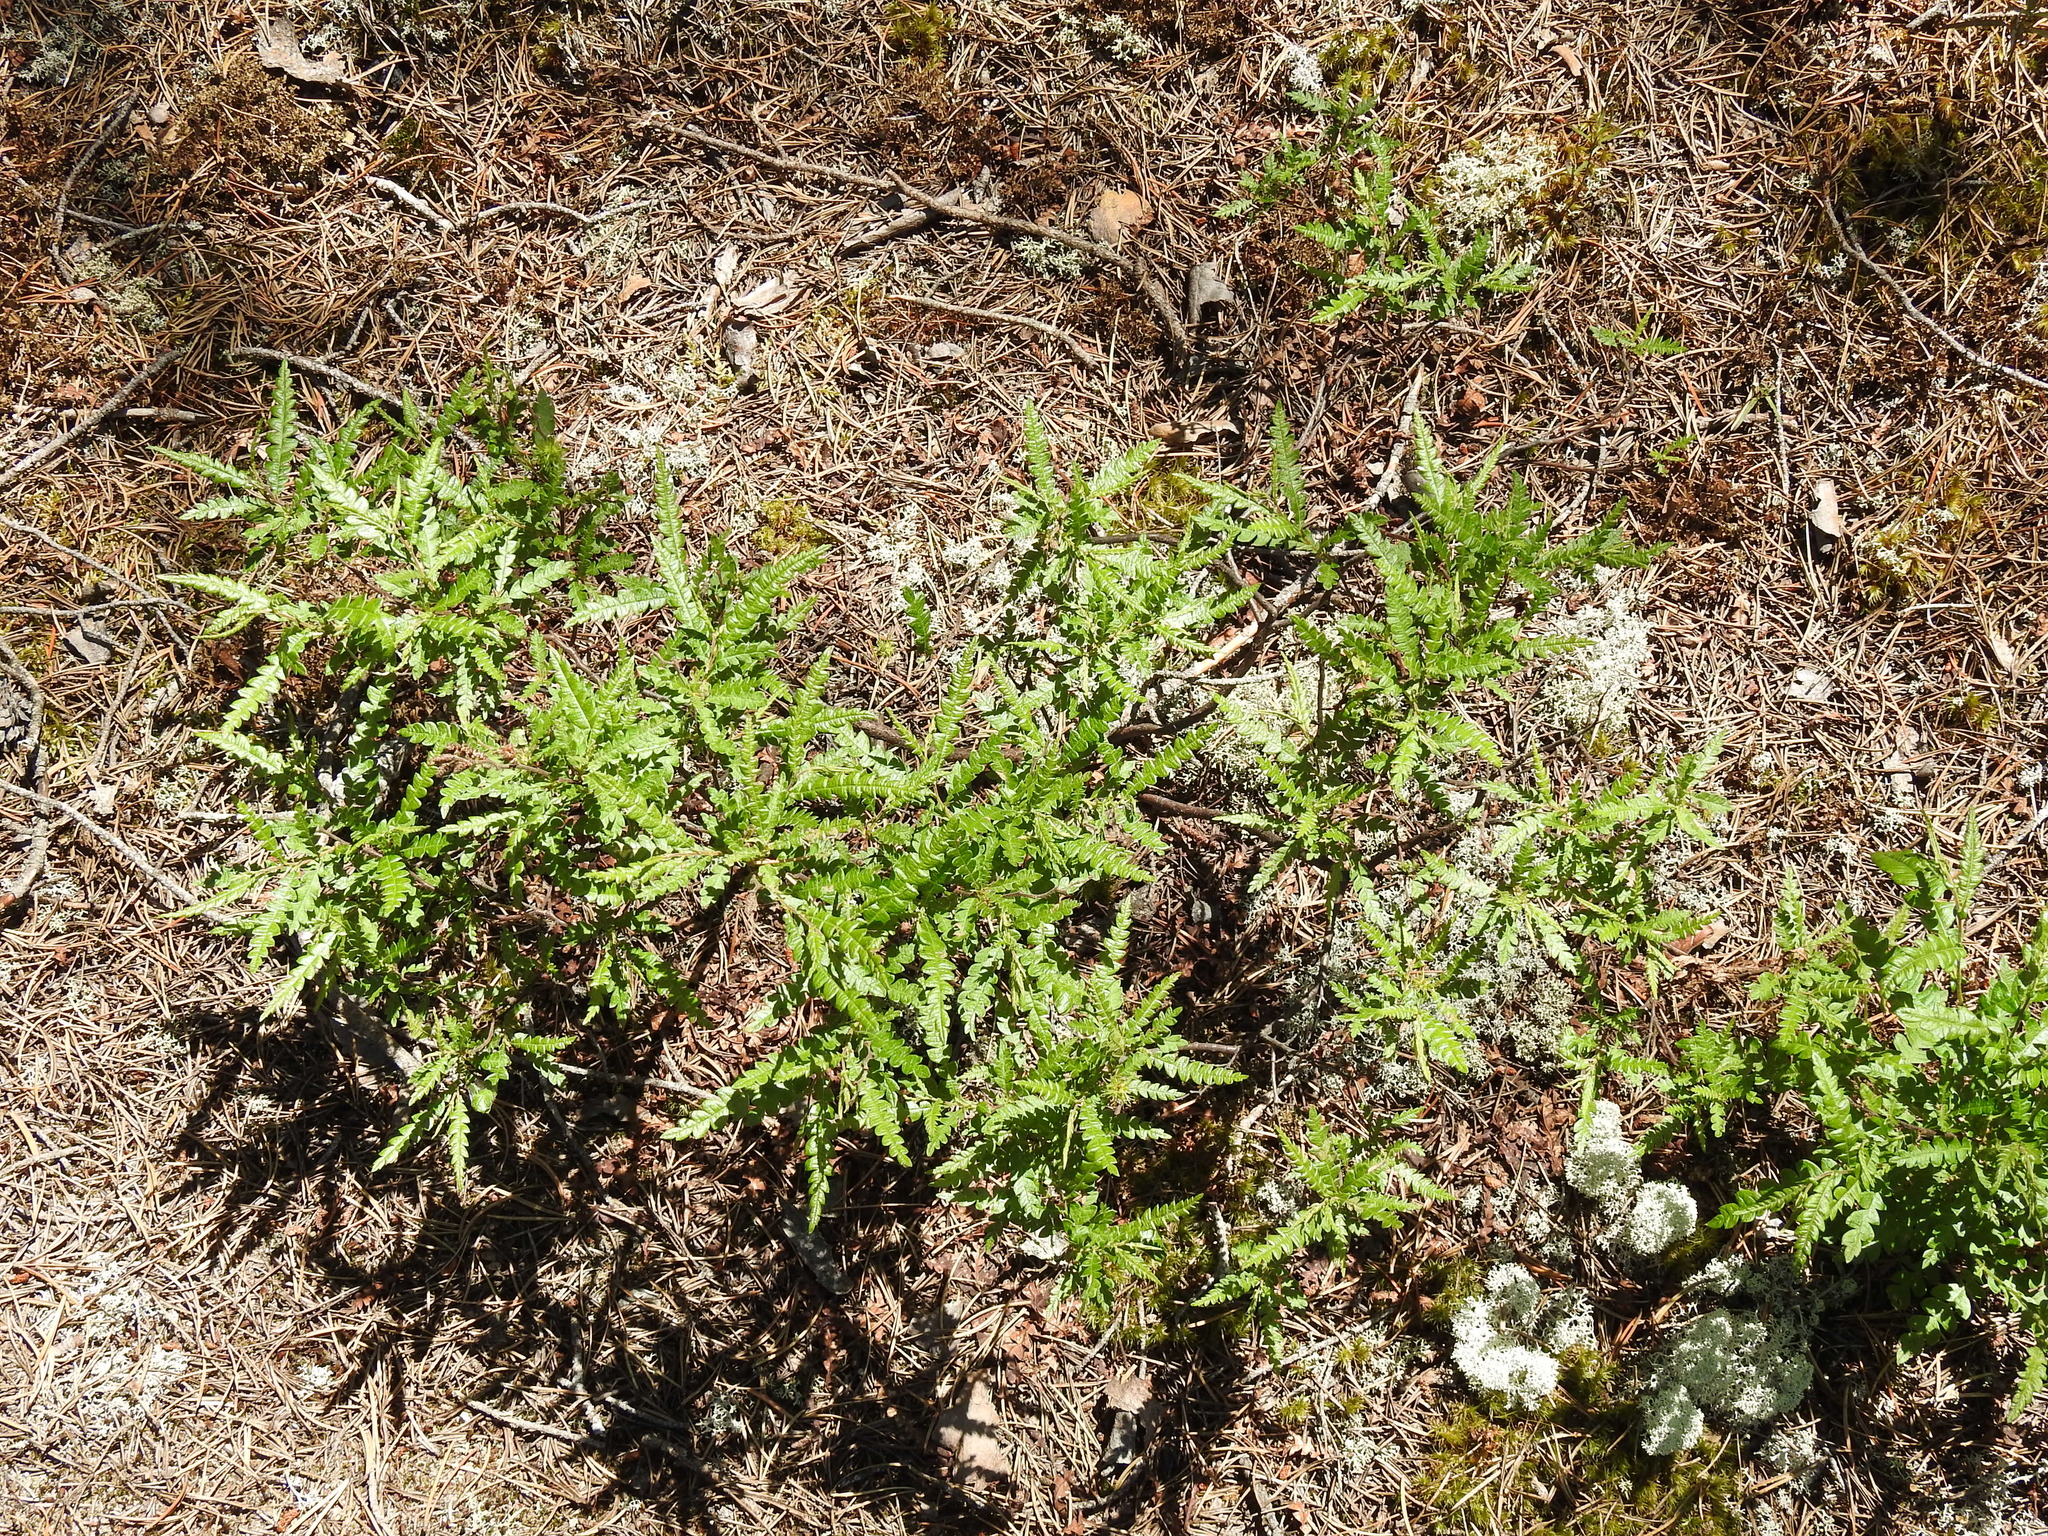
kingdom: Plantae
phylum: Tracheophyta
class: Magnoliopsida
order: Fagales
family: Myricaceae
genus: Comptonia
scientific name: Comptonia peregrina
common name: Sweet-fern
